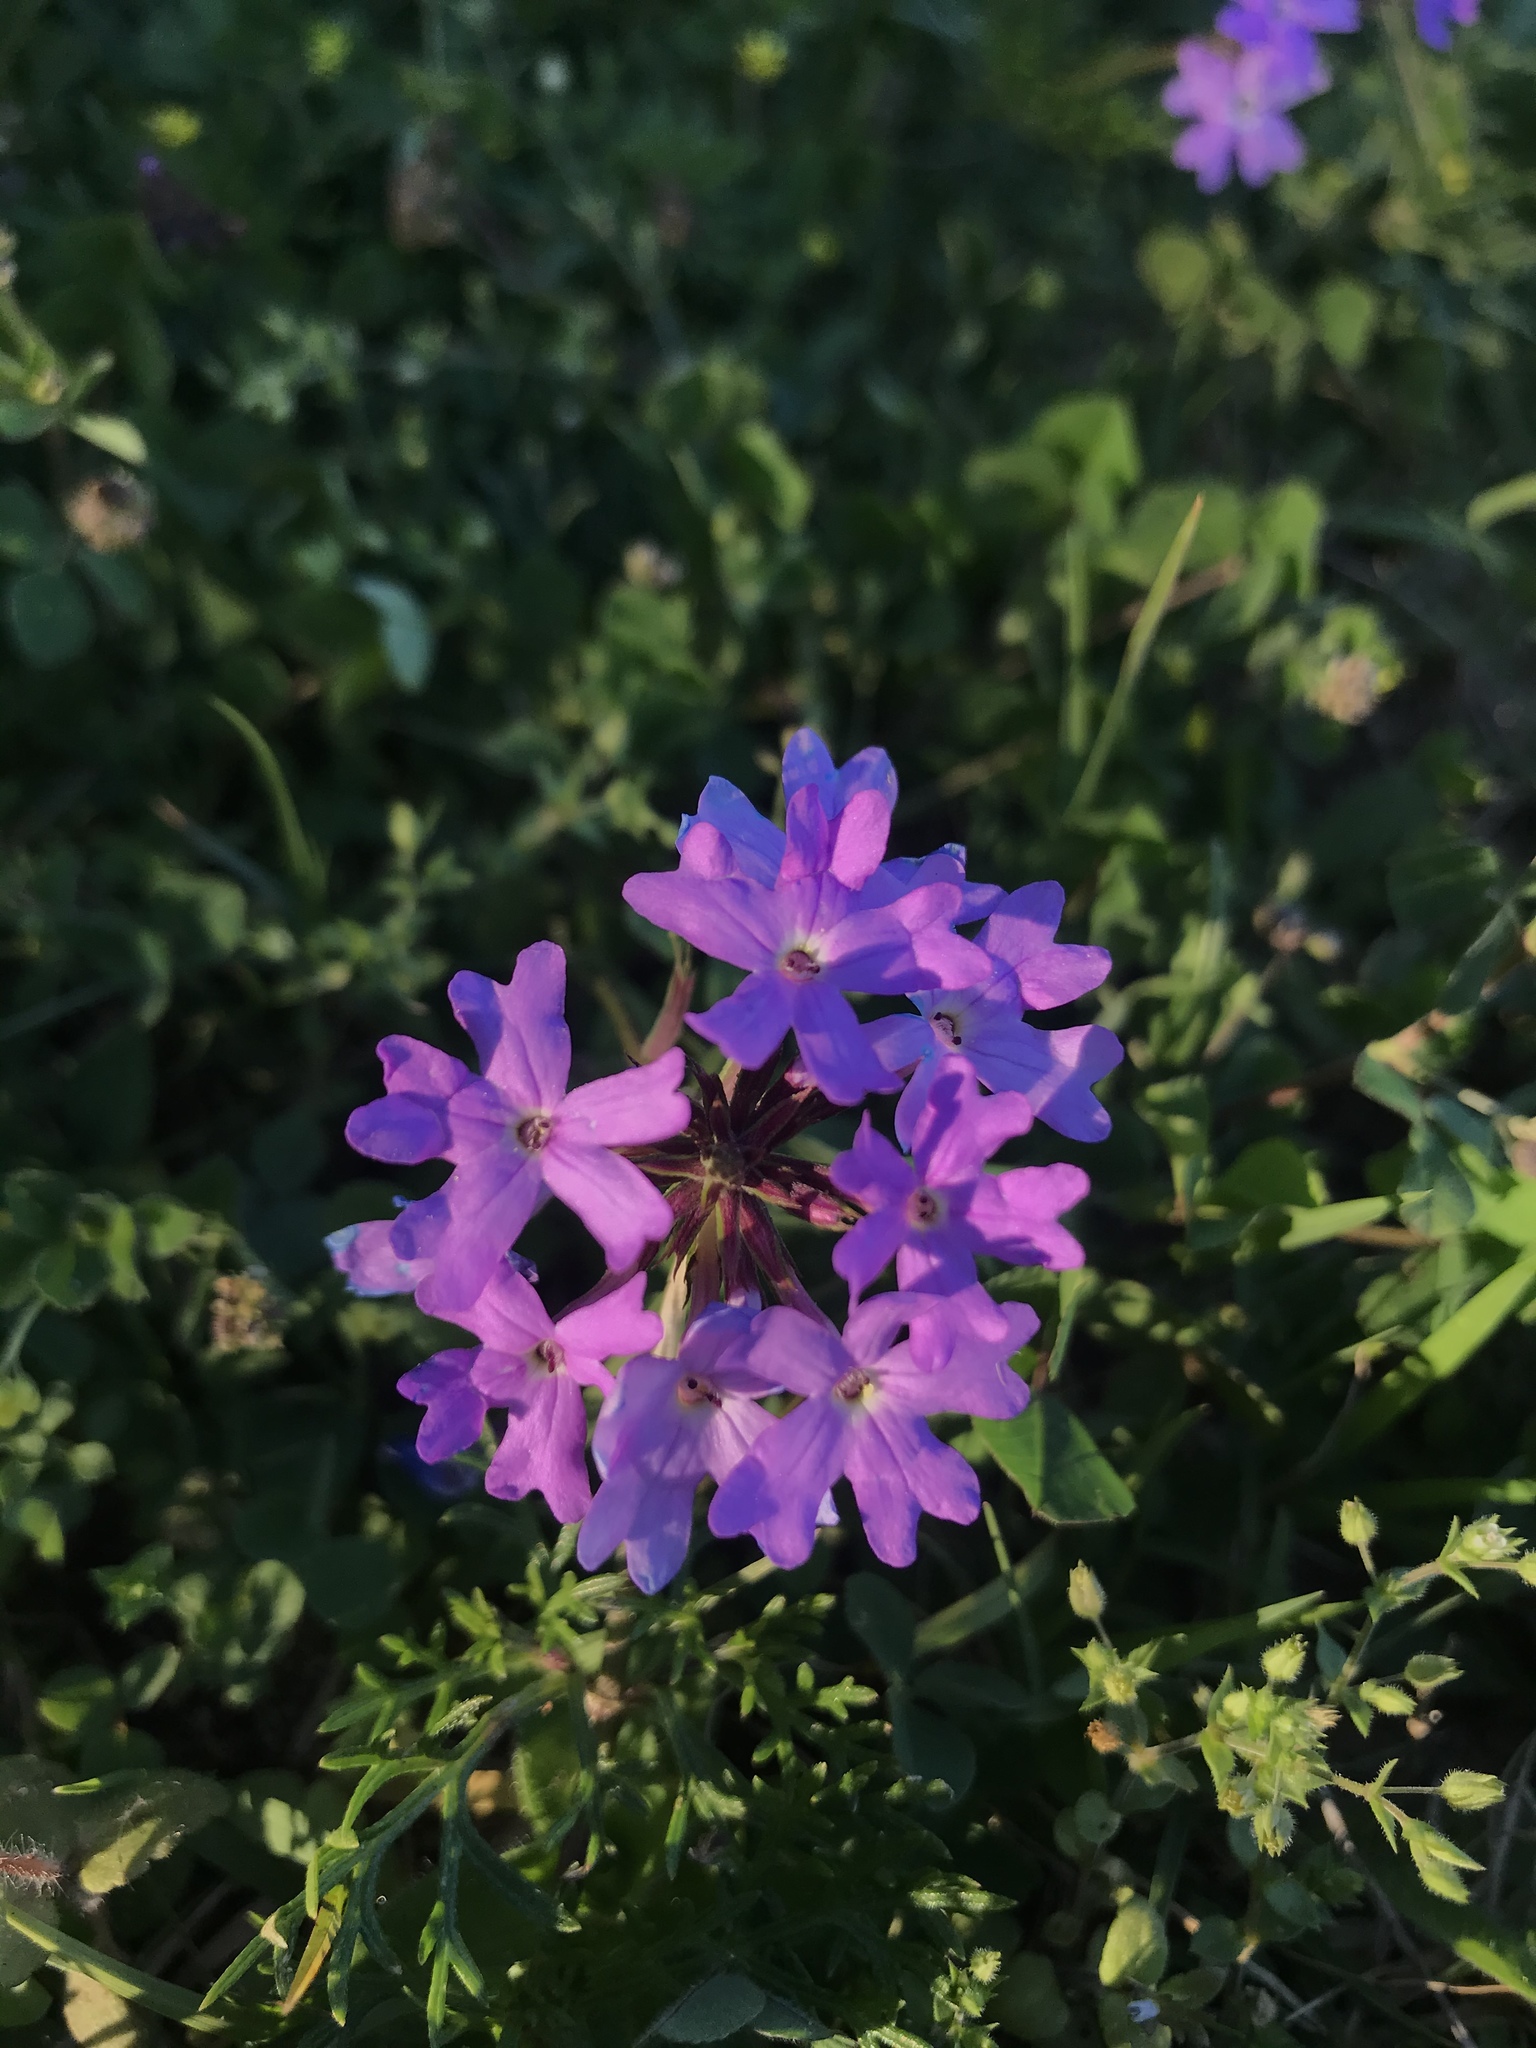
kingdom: Plantae
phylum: Tracheophyta
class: Magnoliopsida
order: Lamiales
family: Verbenaceae
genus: Verbena
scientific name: Verbena
